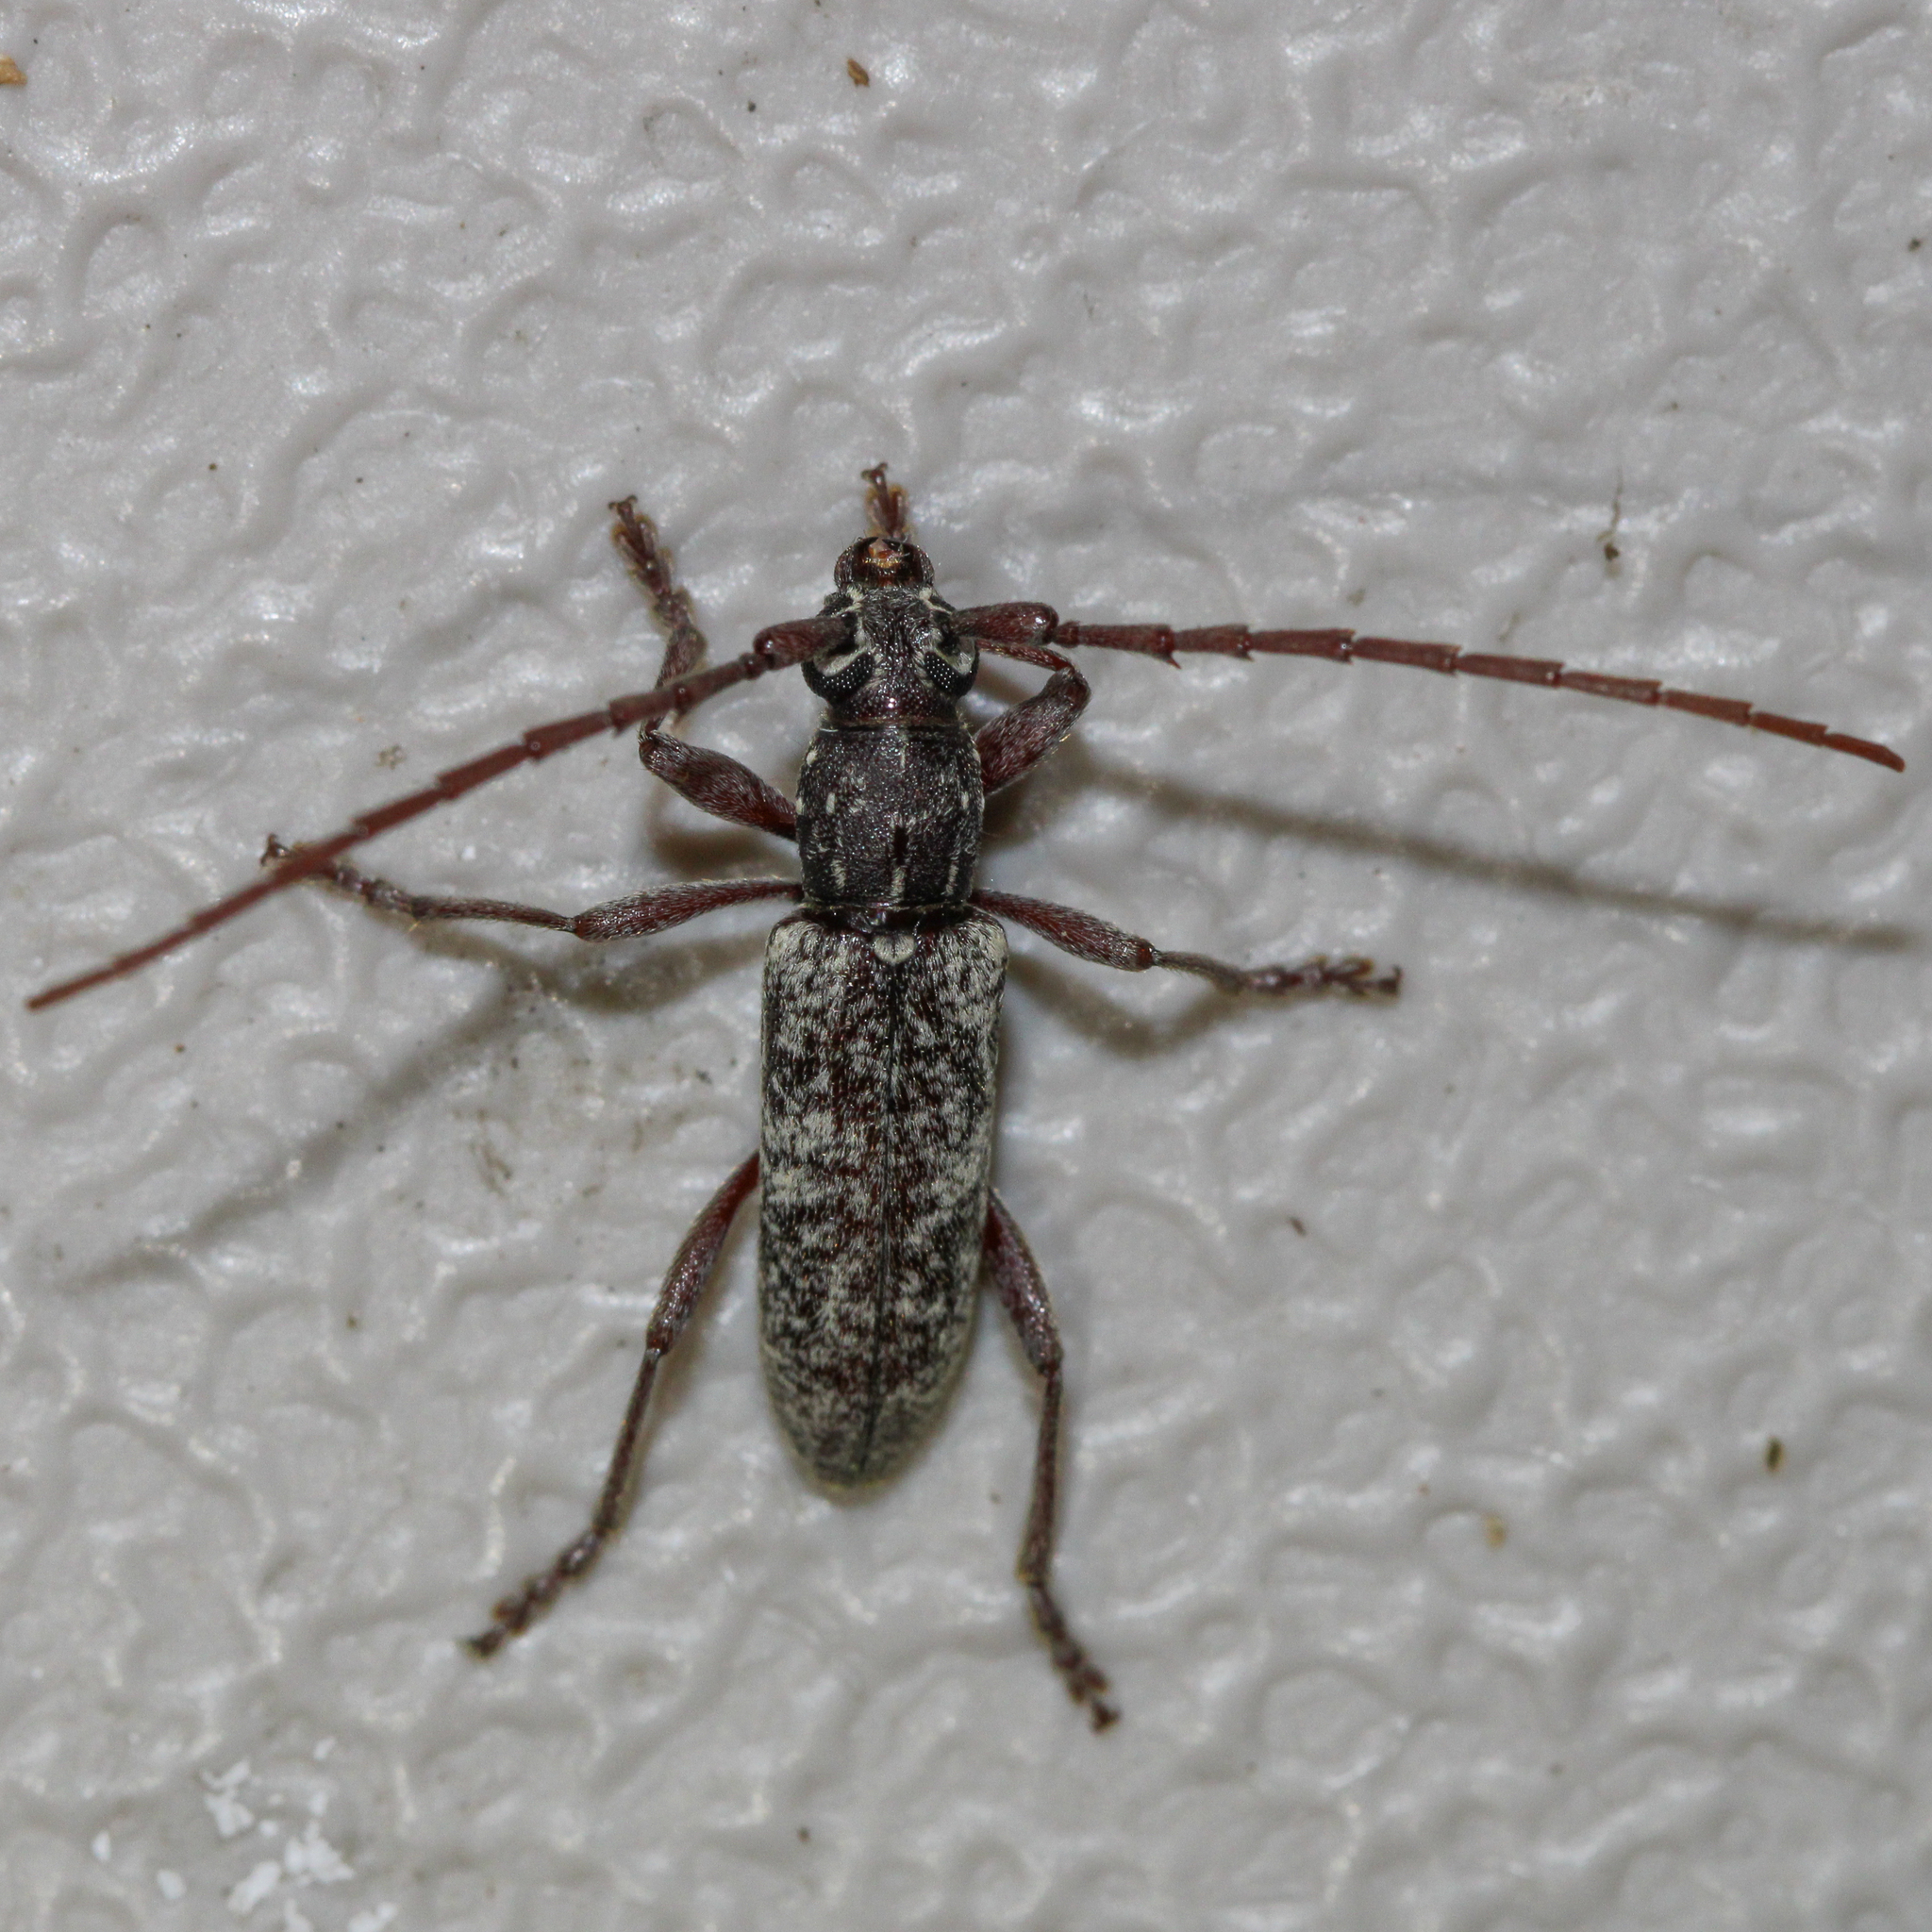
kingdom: Animalia
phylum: Arthropoda
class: Insecta
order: Coleoptera
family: Cerambycidae
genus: Anelaphus
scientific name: Anelaphus inermis
